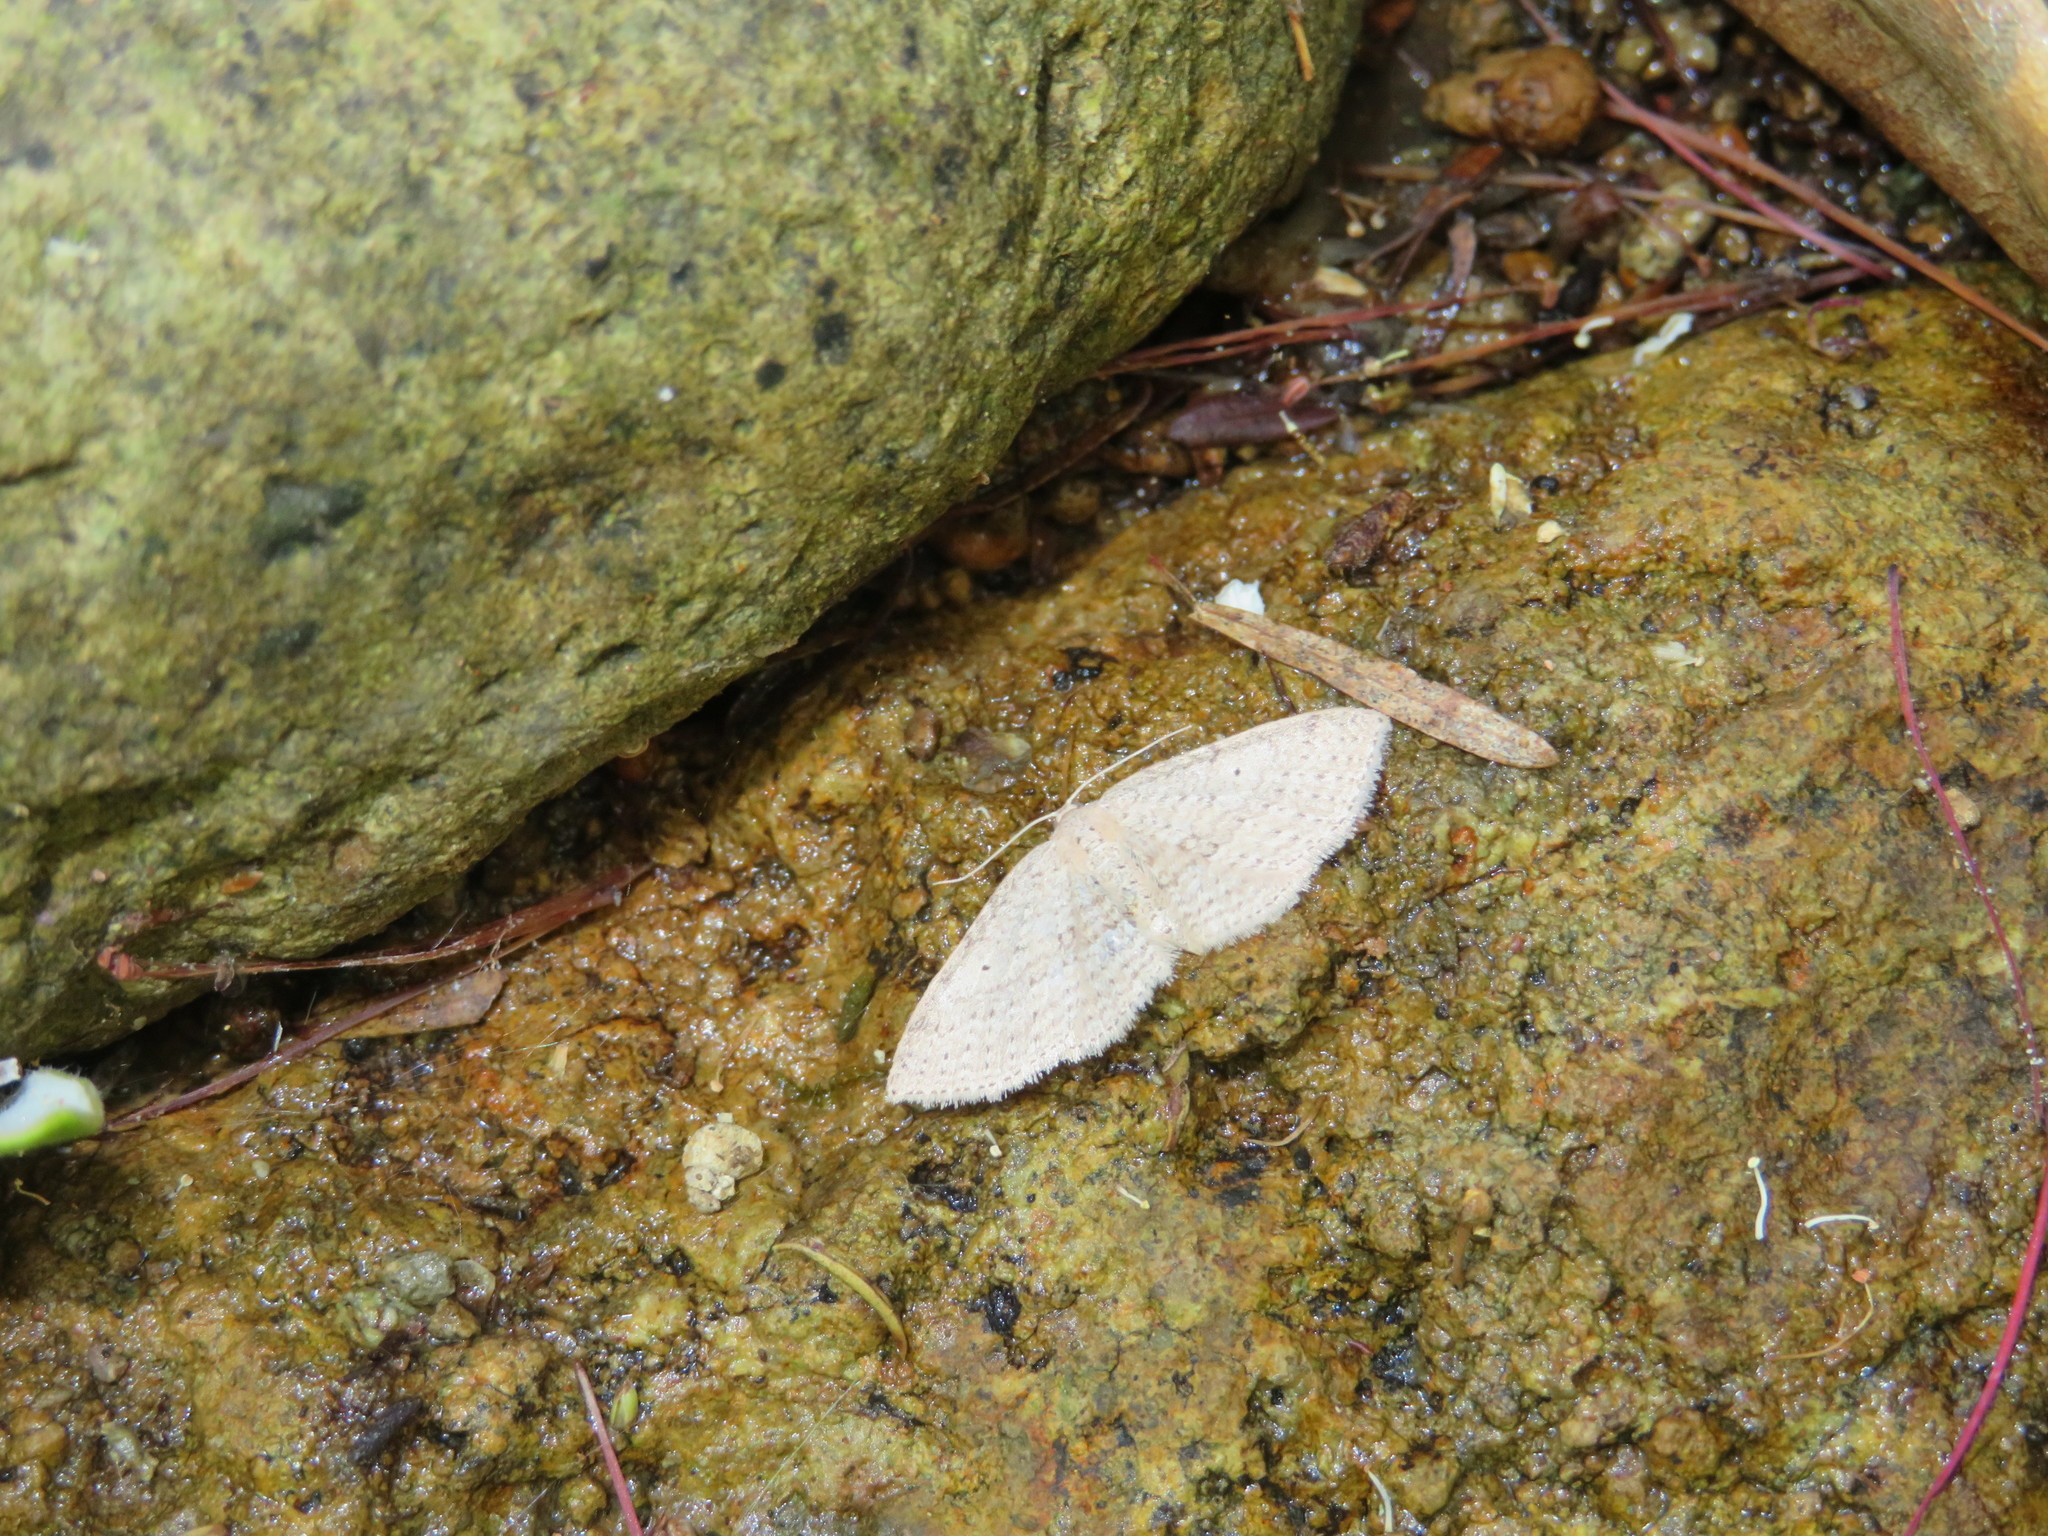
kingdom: Animalia
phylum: Arthropoda
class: Insecta
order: Lepidoptera
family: Geometridae
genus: Poecilasthena
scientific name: Poecilasthena schistaria
